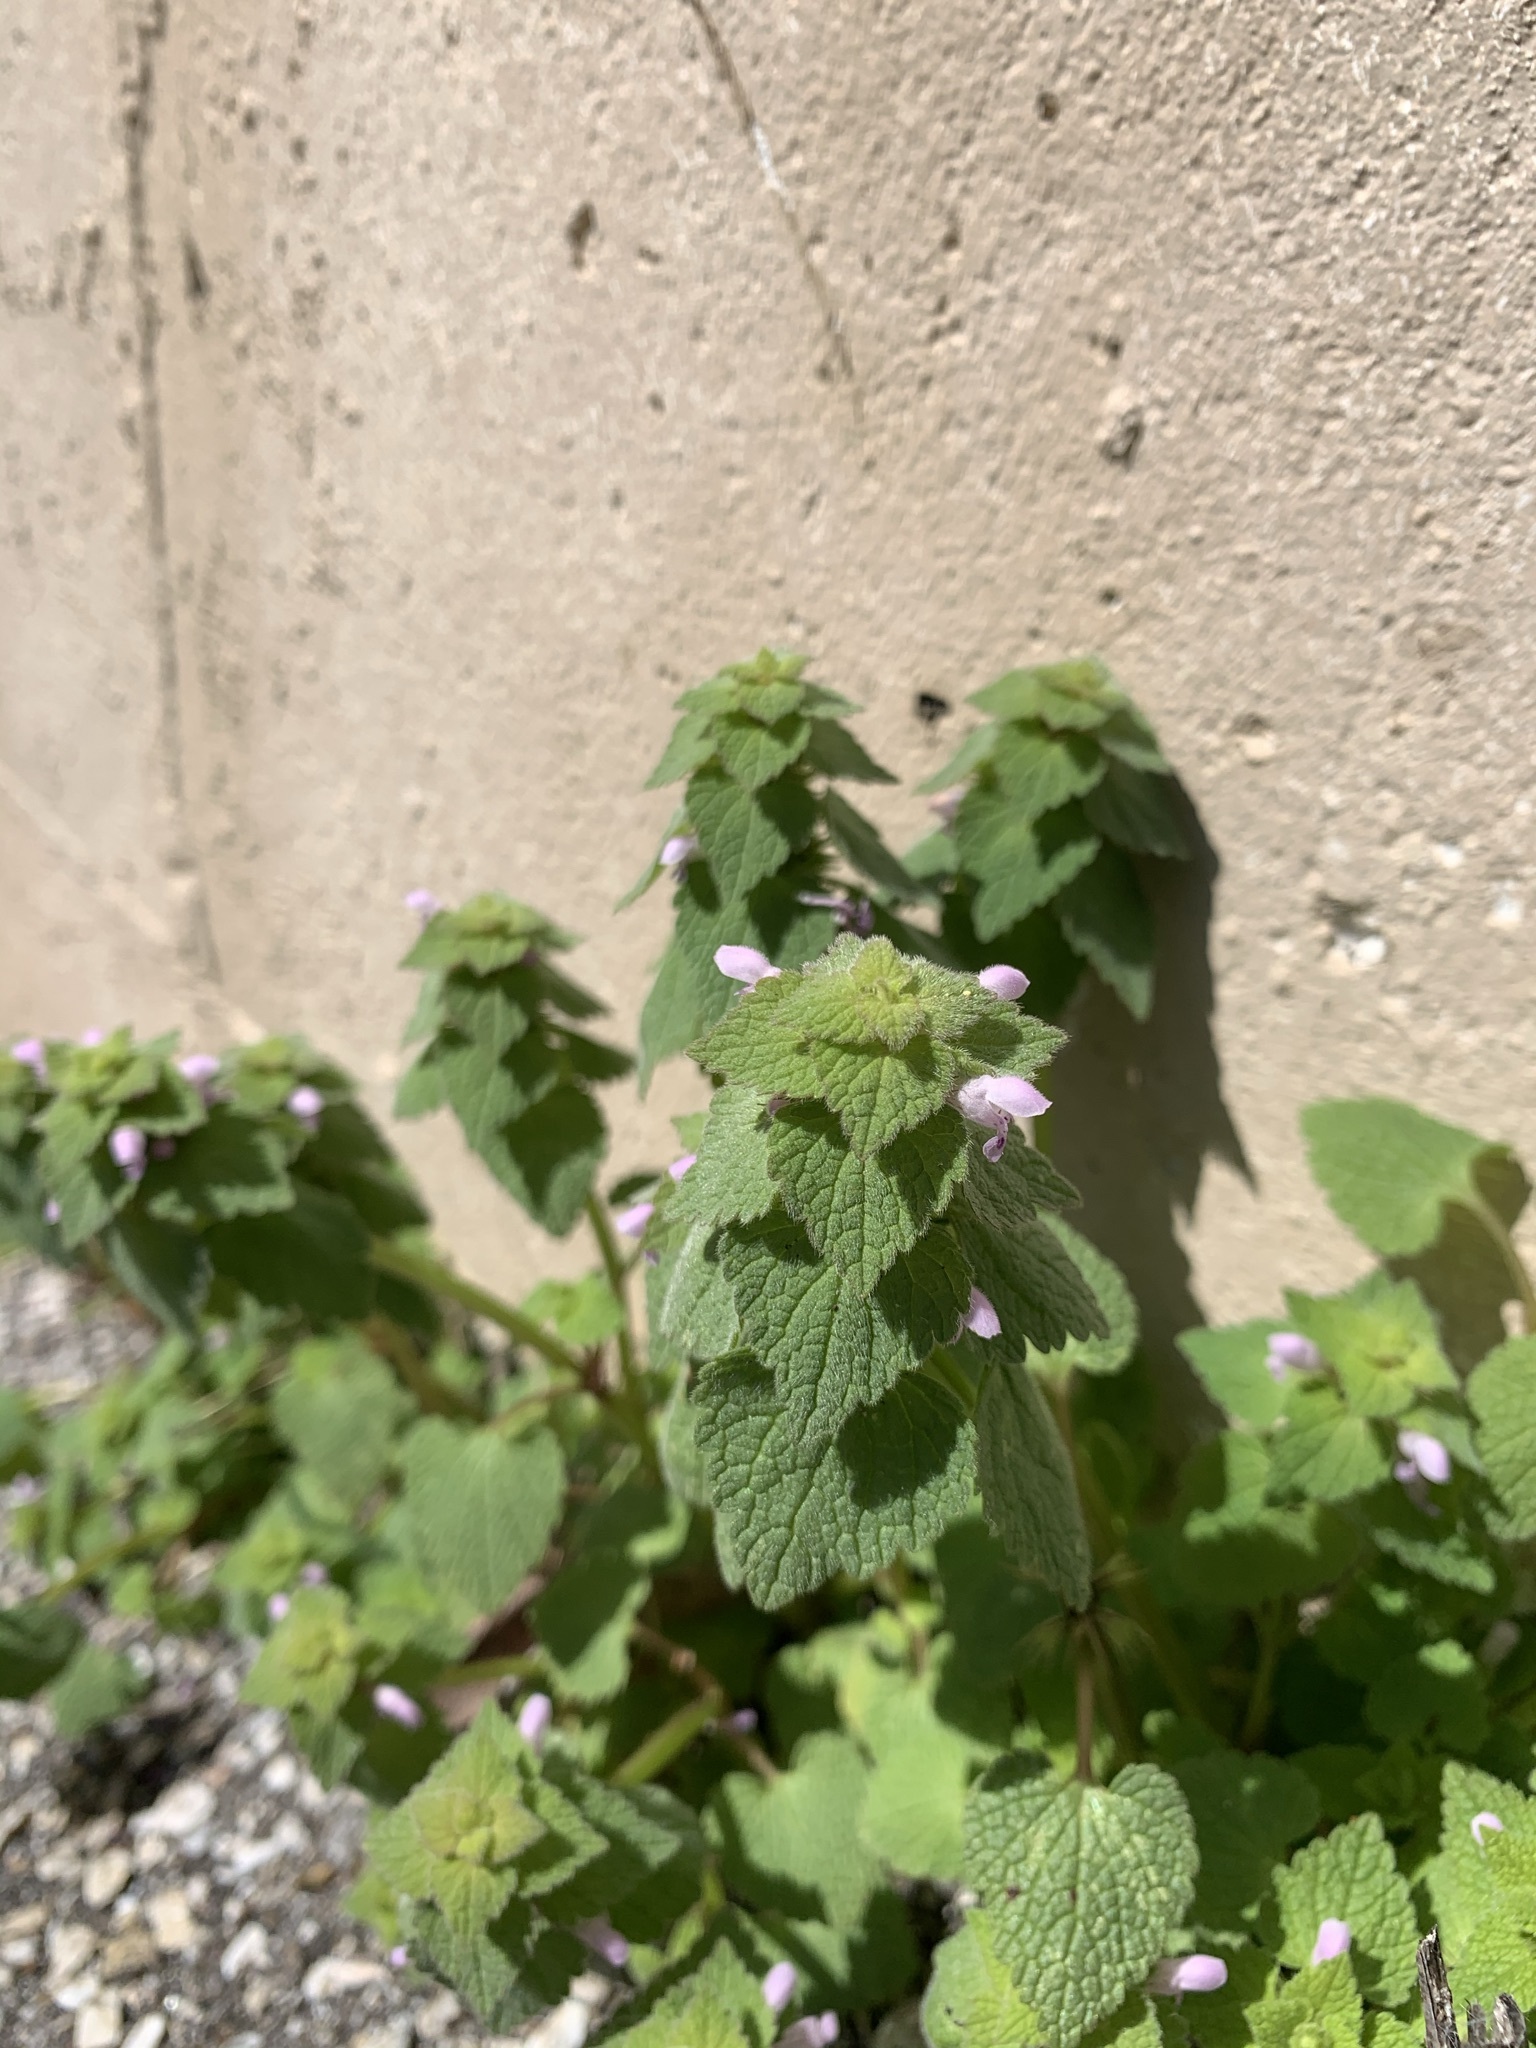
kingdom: Plantae
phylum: Tracheophyta
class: Magnoliopsida
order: Lamiales
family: Lamiaceae
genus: Lamium
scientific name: Lamium purpureum
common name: Red dead-nettle
